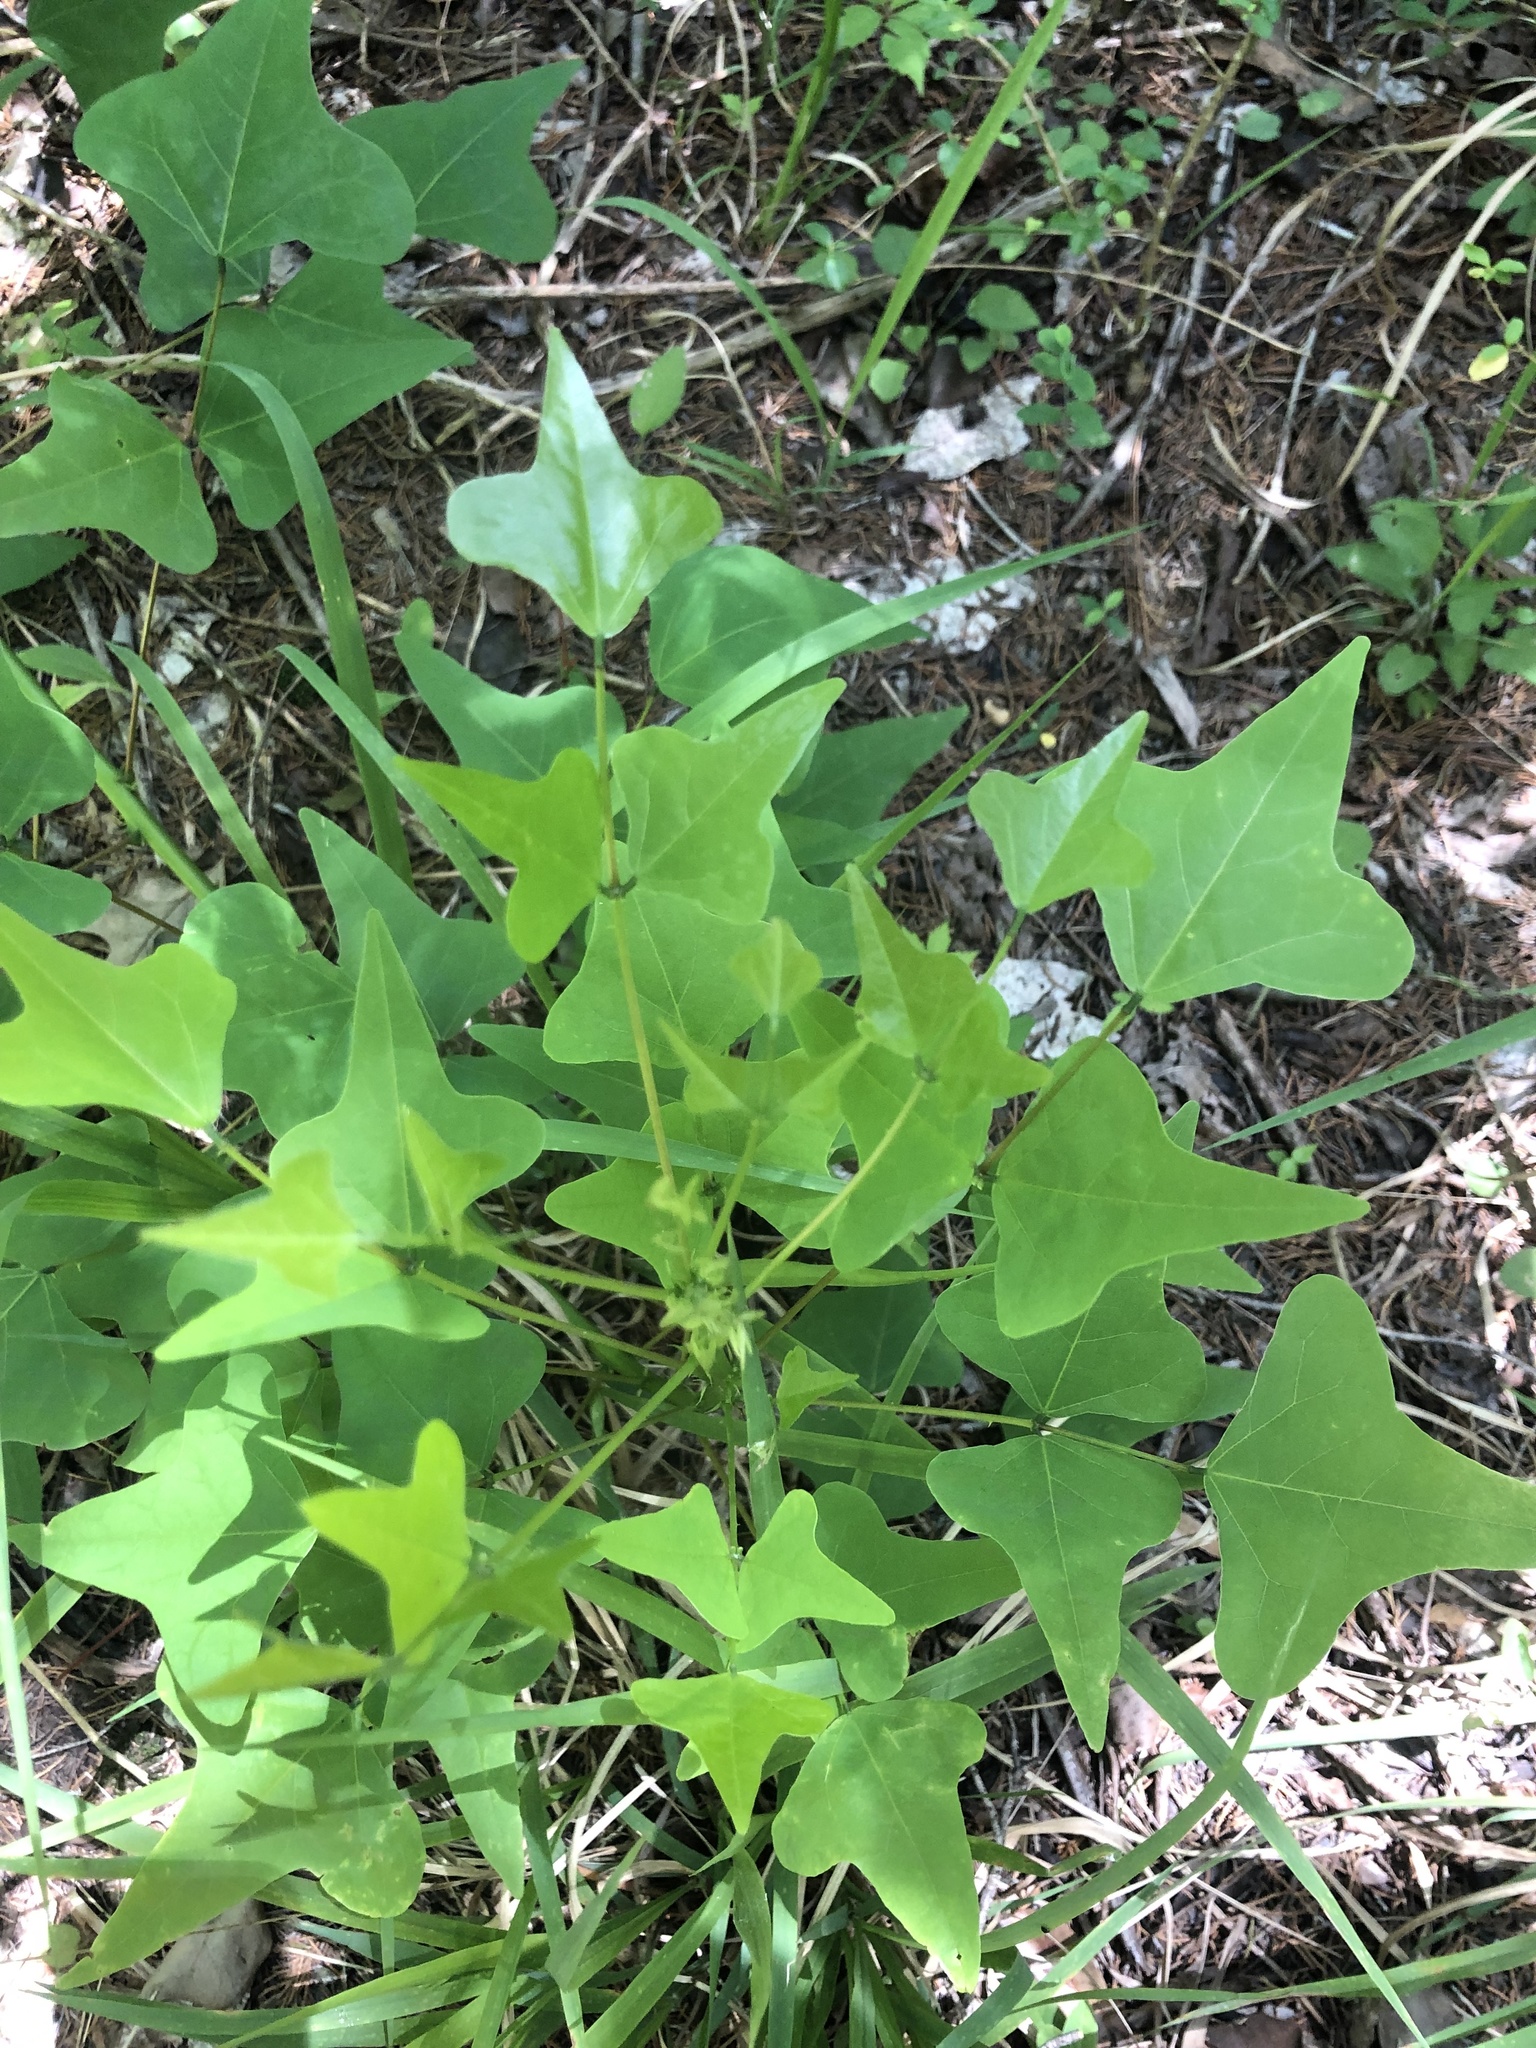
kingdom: Plantae
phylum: Tracheophyta
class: Magnoliopsida
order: Fabales
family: Fabaceae
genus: Erythrina
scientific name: Erythrina herbacea
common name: Coral-bean
